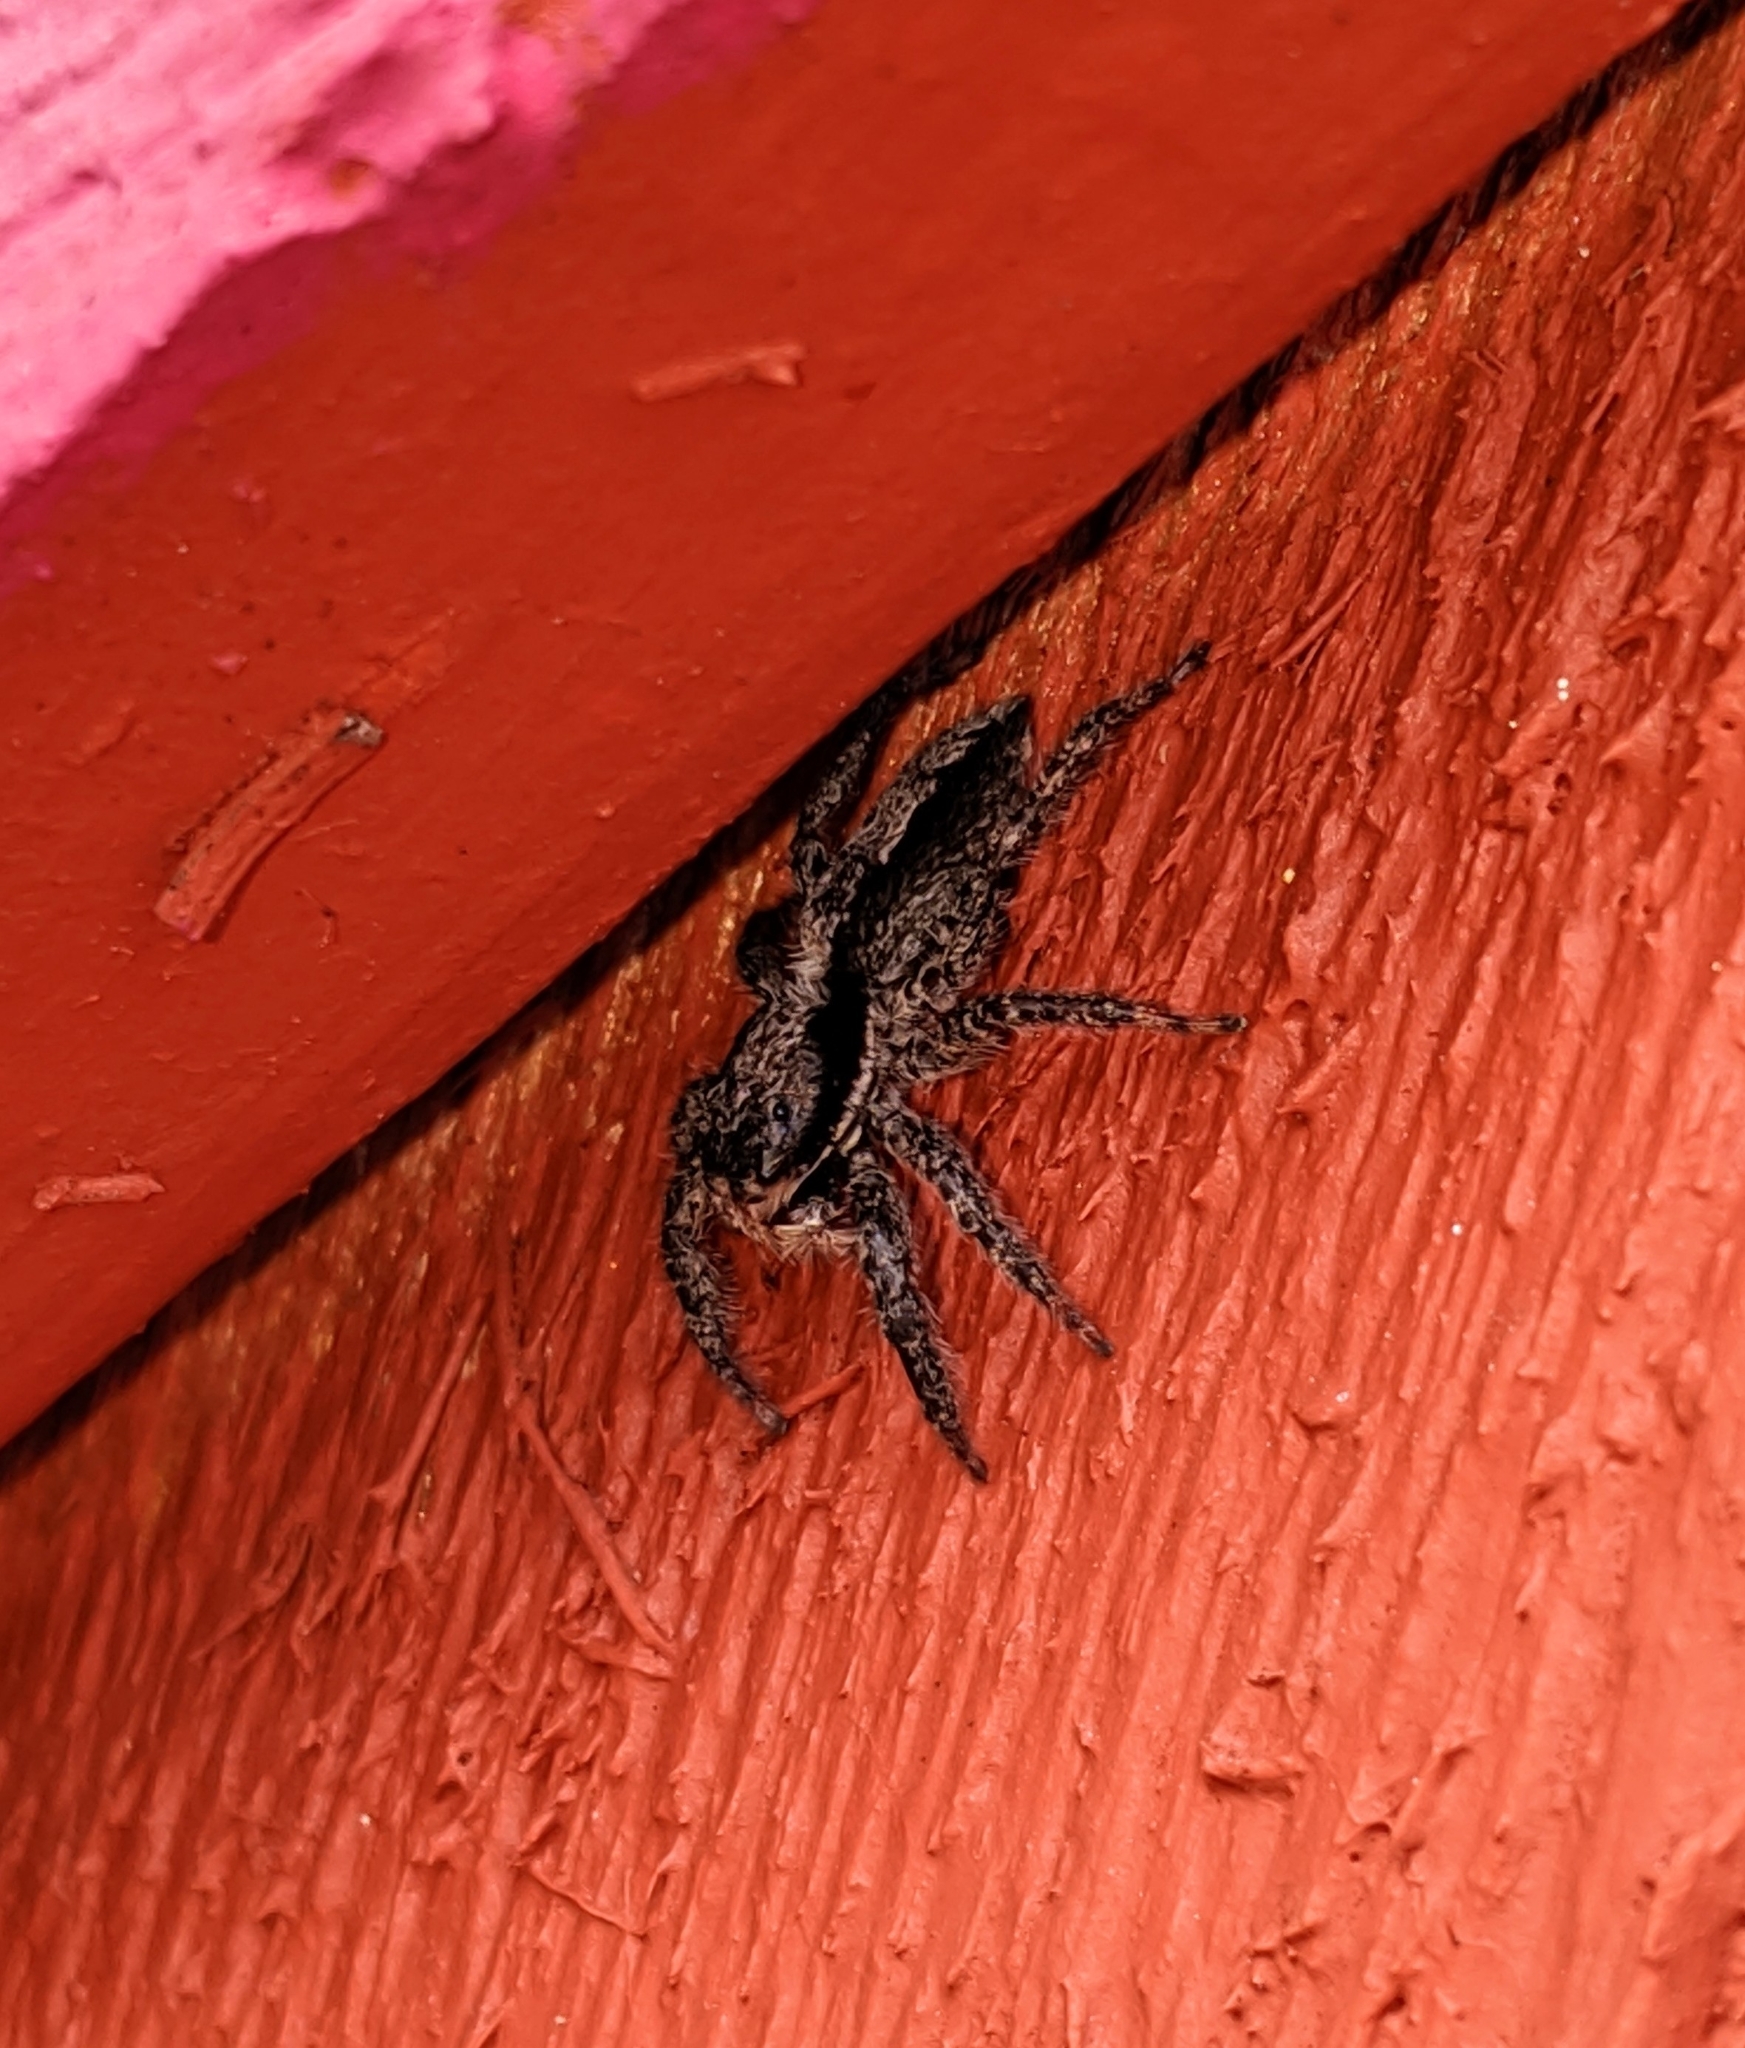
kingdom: Animalia
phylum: Arthropoda
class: Arachnida
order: Araneae
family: Salticidae
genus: Platycryptus
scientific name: Platycryptus californicus
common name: Jumping spiders
